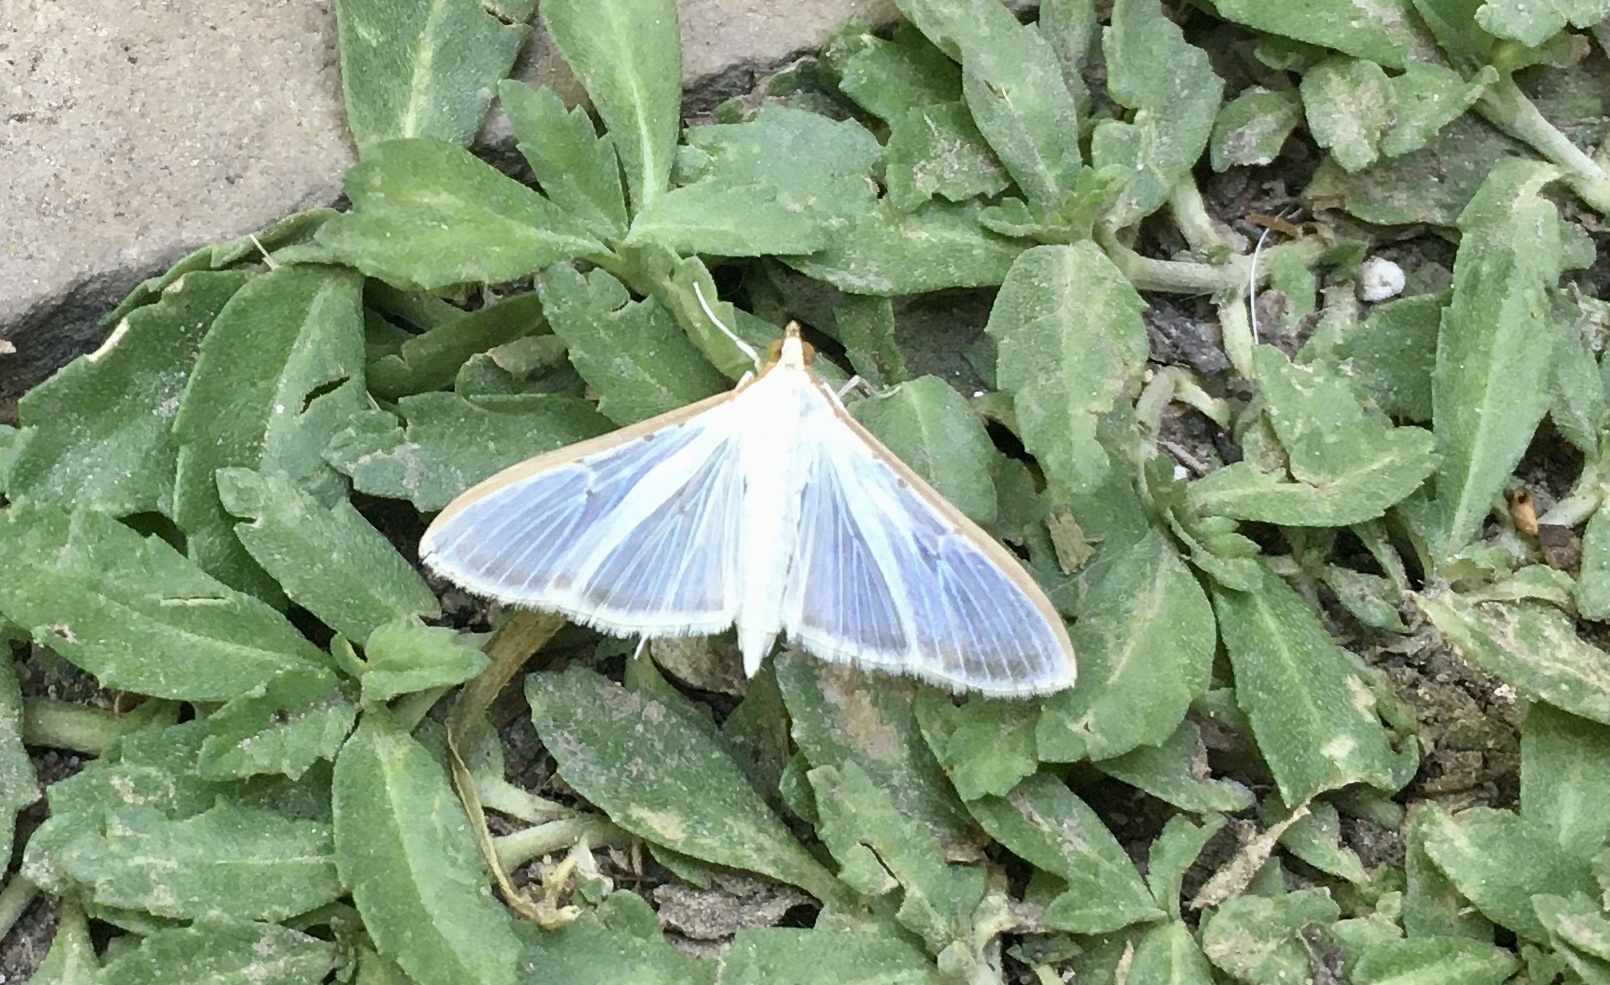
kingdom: Animalia
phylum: Arthropoda
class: Insecta
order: Lepidoptera
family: Crambidae
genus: Palpita
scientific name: Palpita quadristigmalis
